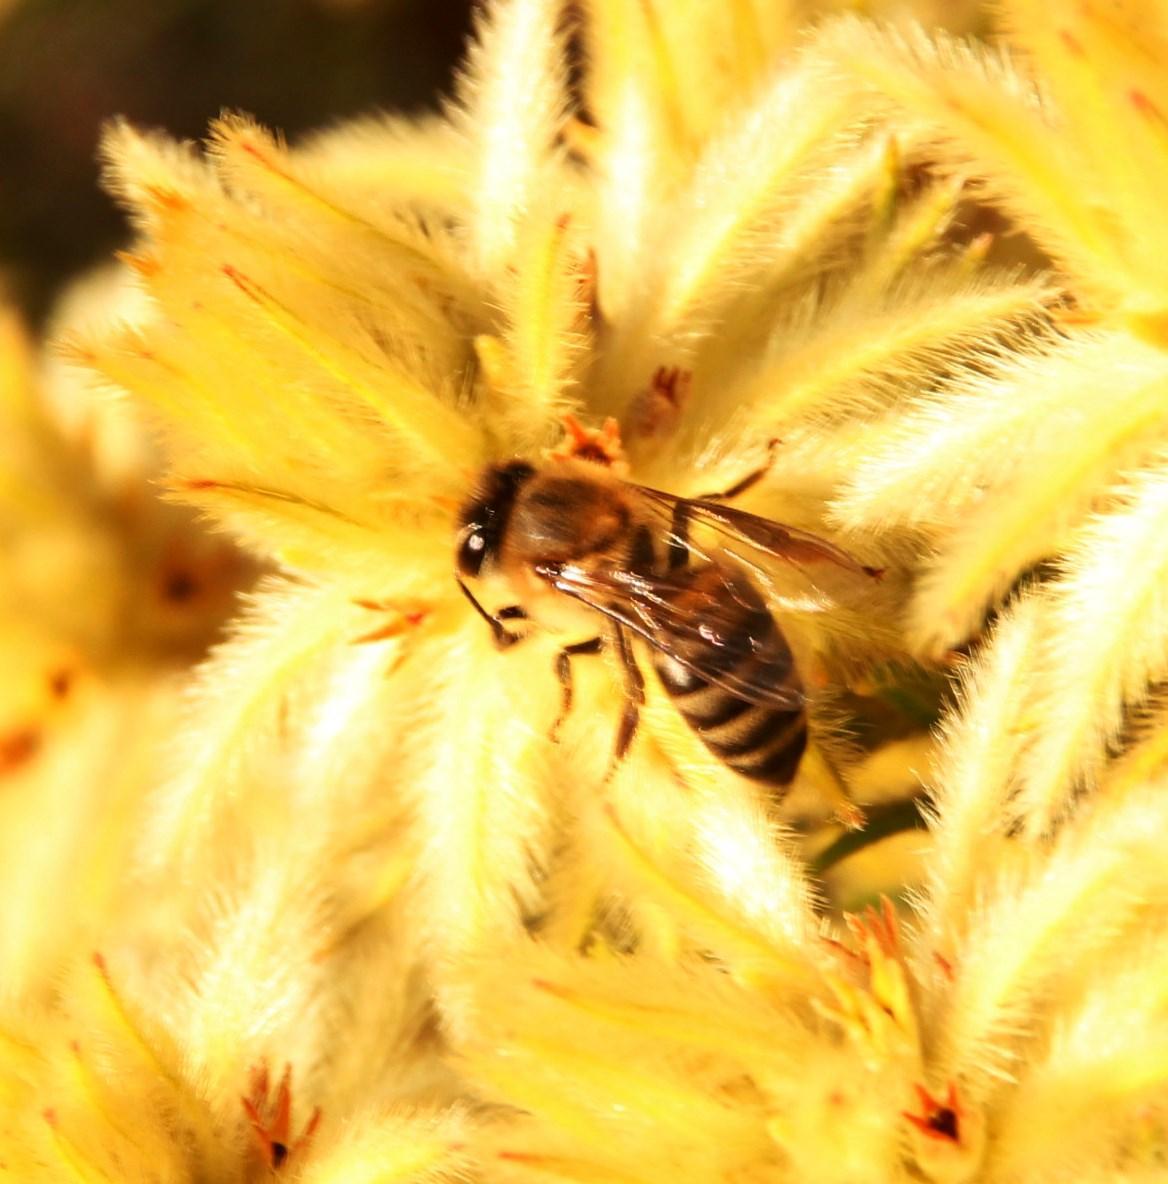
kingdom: Animalia
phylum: Arthropoda
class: Insecta
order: Hymenoptera
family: Apidae
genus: Apis
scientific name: Apis mellifera
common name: Honey bee
